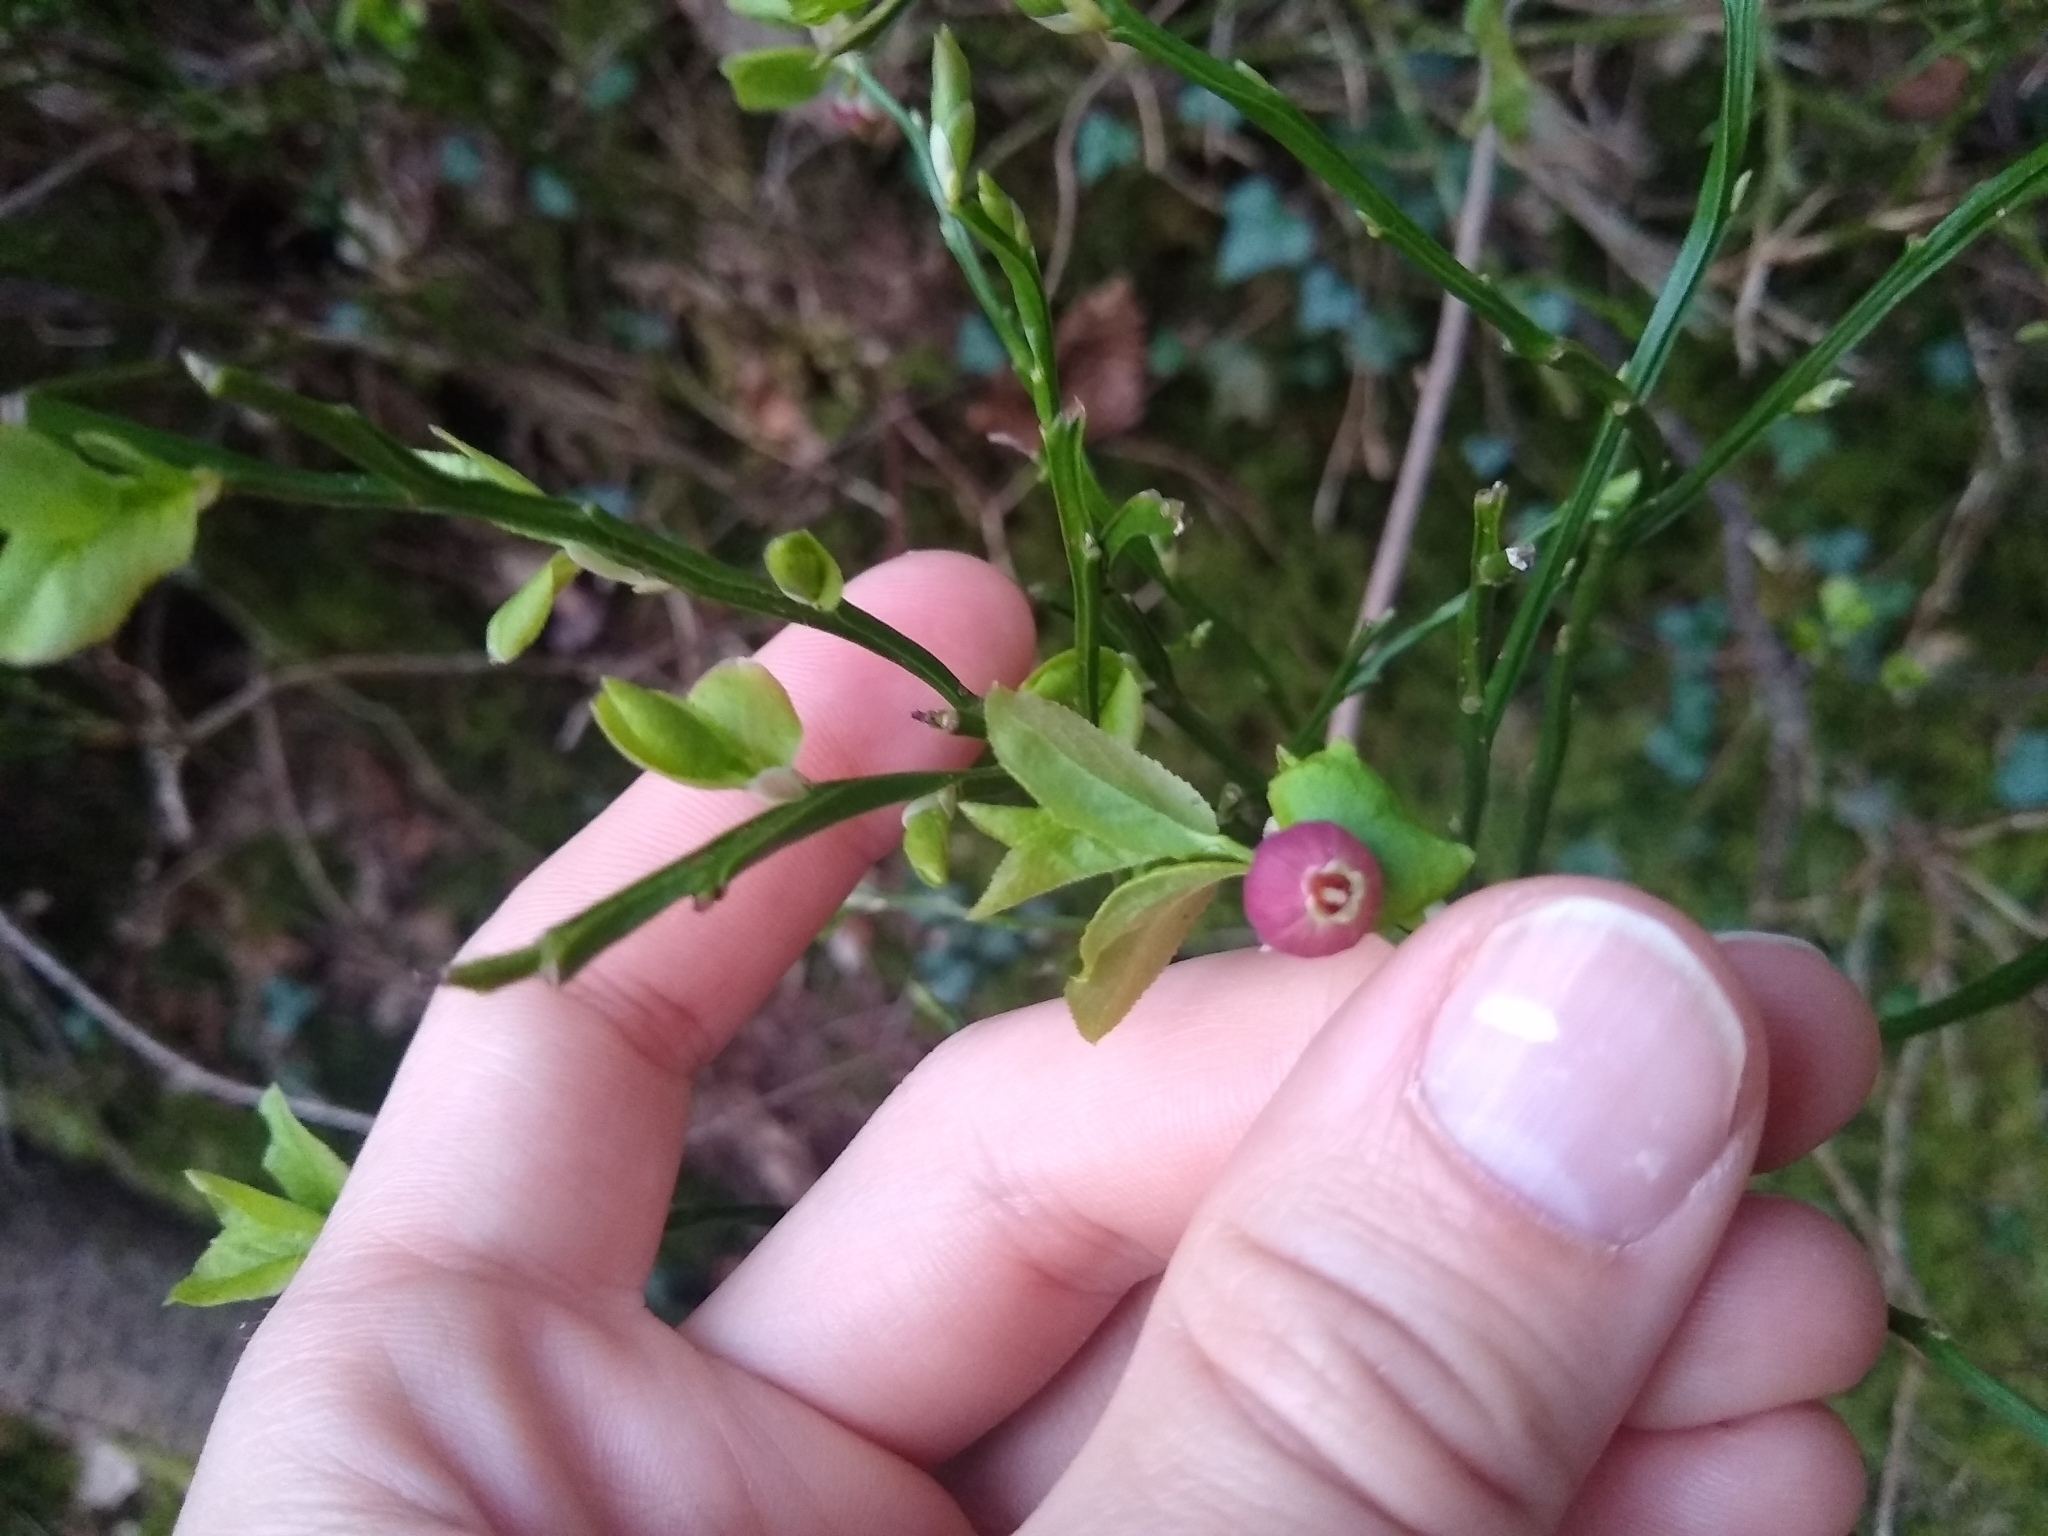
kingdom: Plantae
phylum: Tracheophyta
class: Magnoliopsida
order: Ericales
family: Ericaceae
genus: Vaccinium
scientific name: Vaccinium myrtillus
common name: Bilberry
